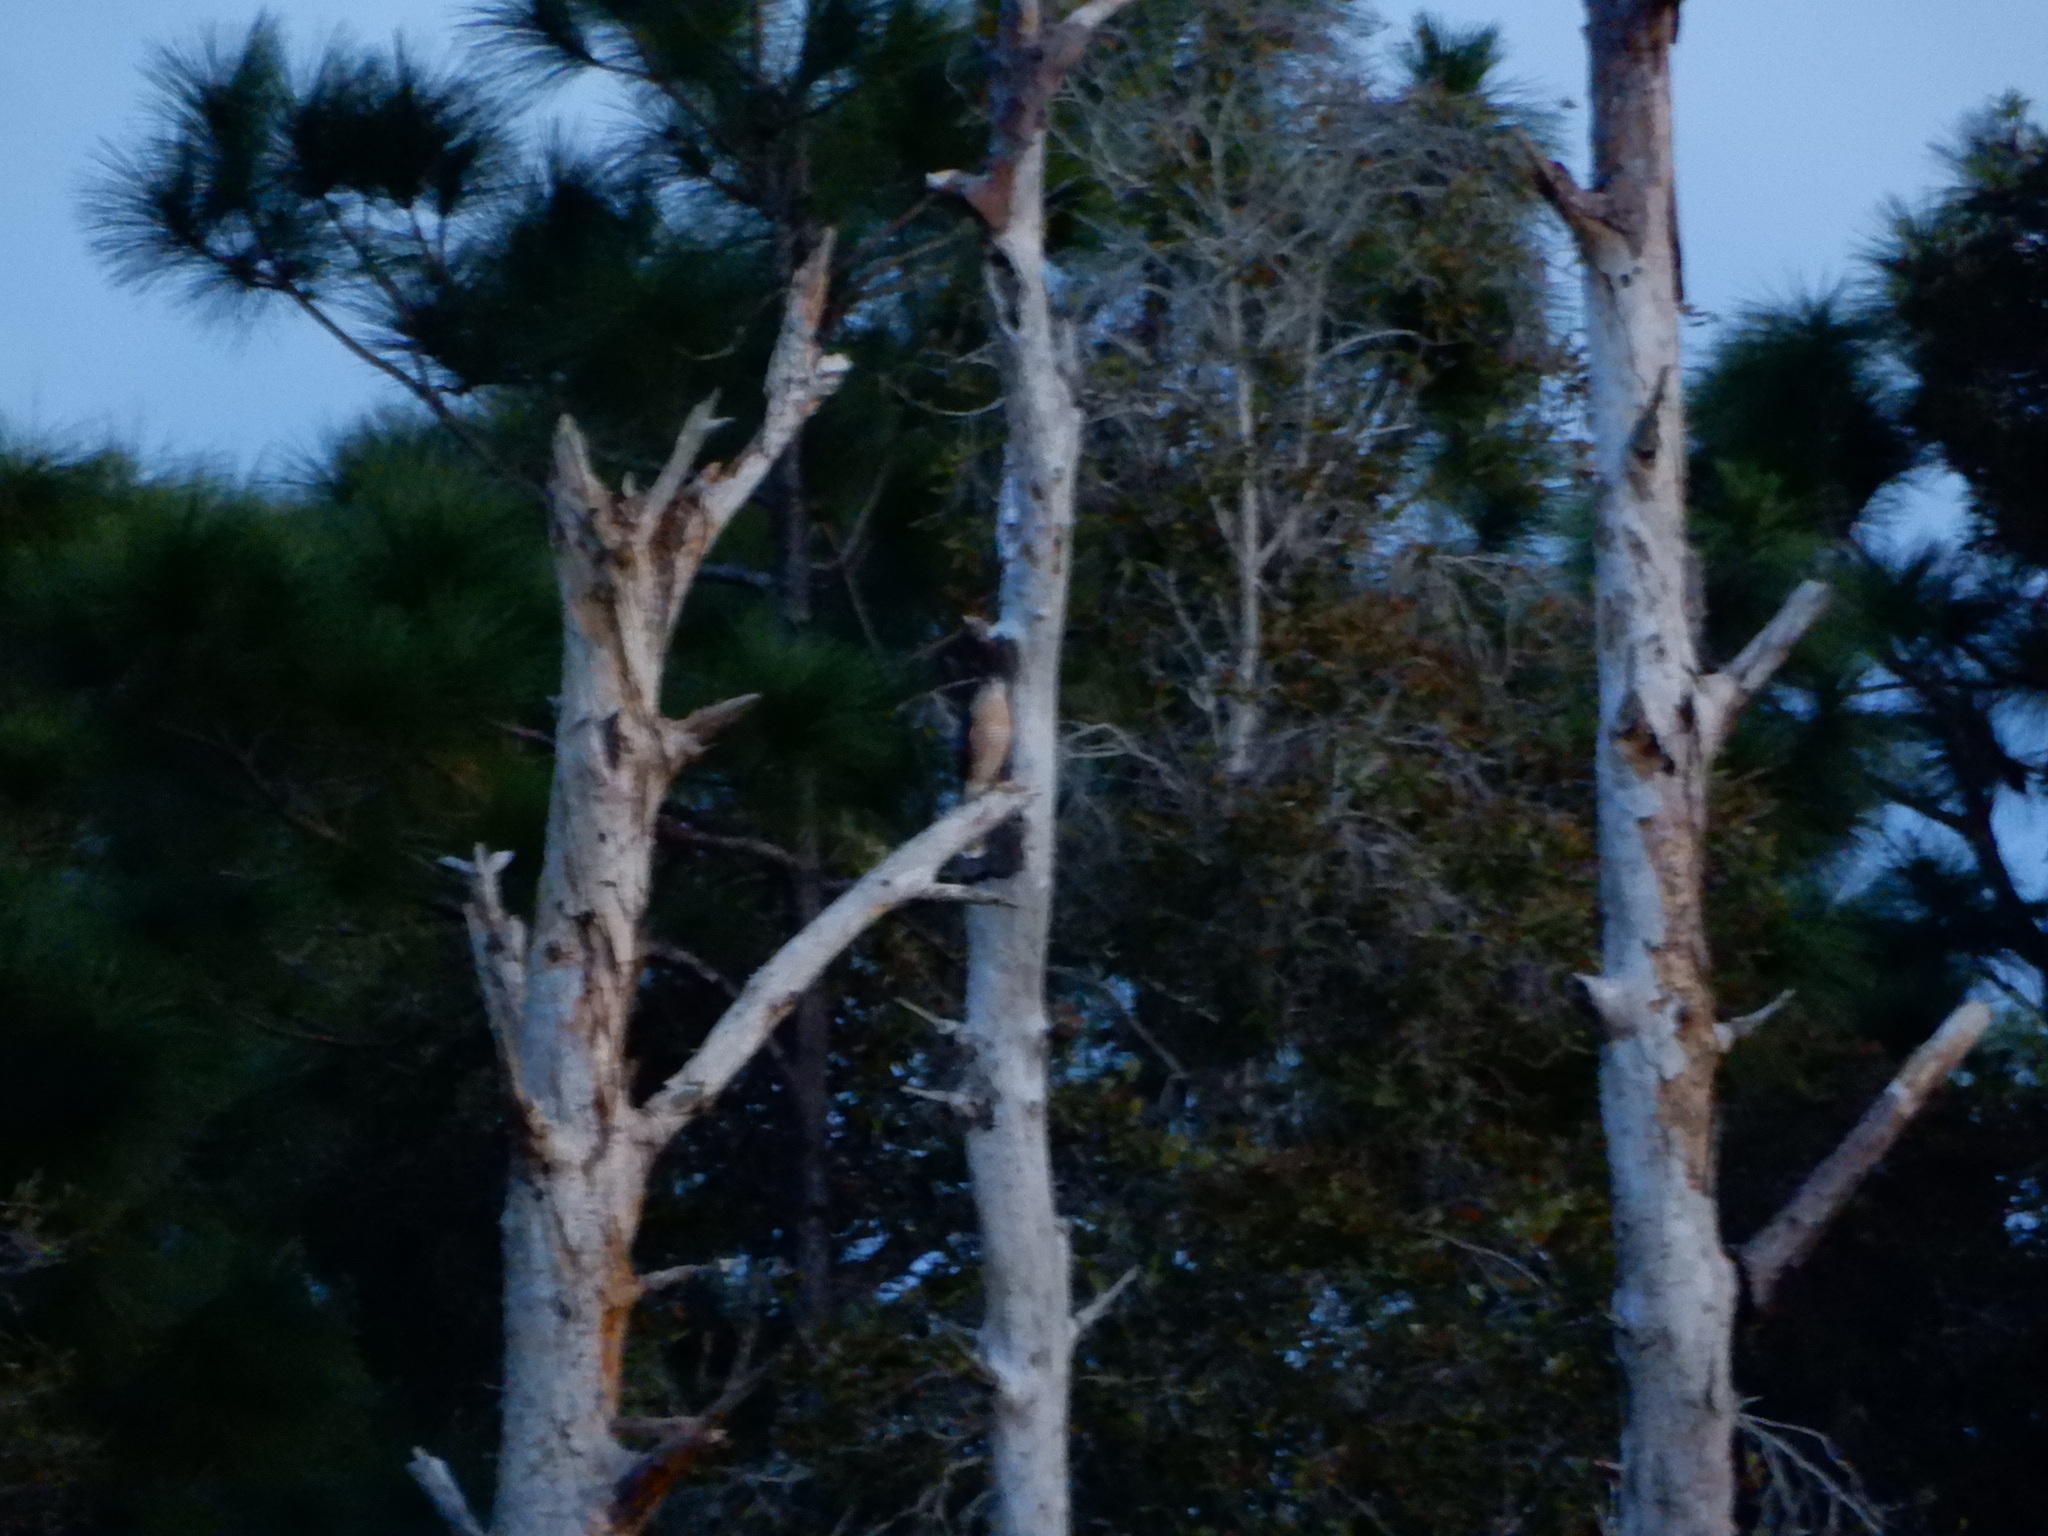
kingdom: Animalia
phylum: Chordata
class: Aves
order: Accipitriformes
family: Accipitridae
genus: Accipiter
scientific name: Accipiter cooperii
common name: Cooper's hawk
